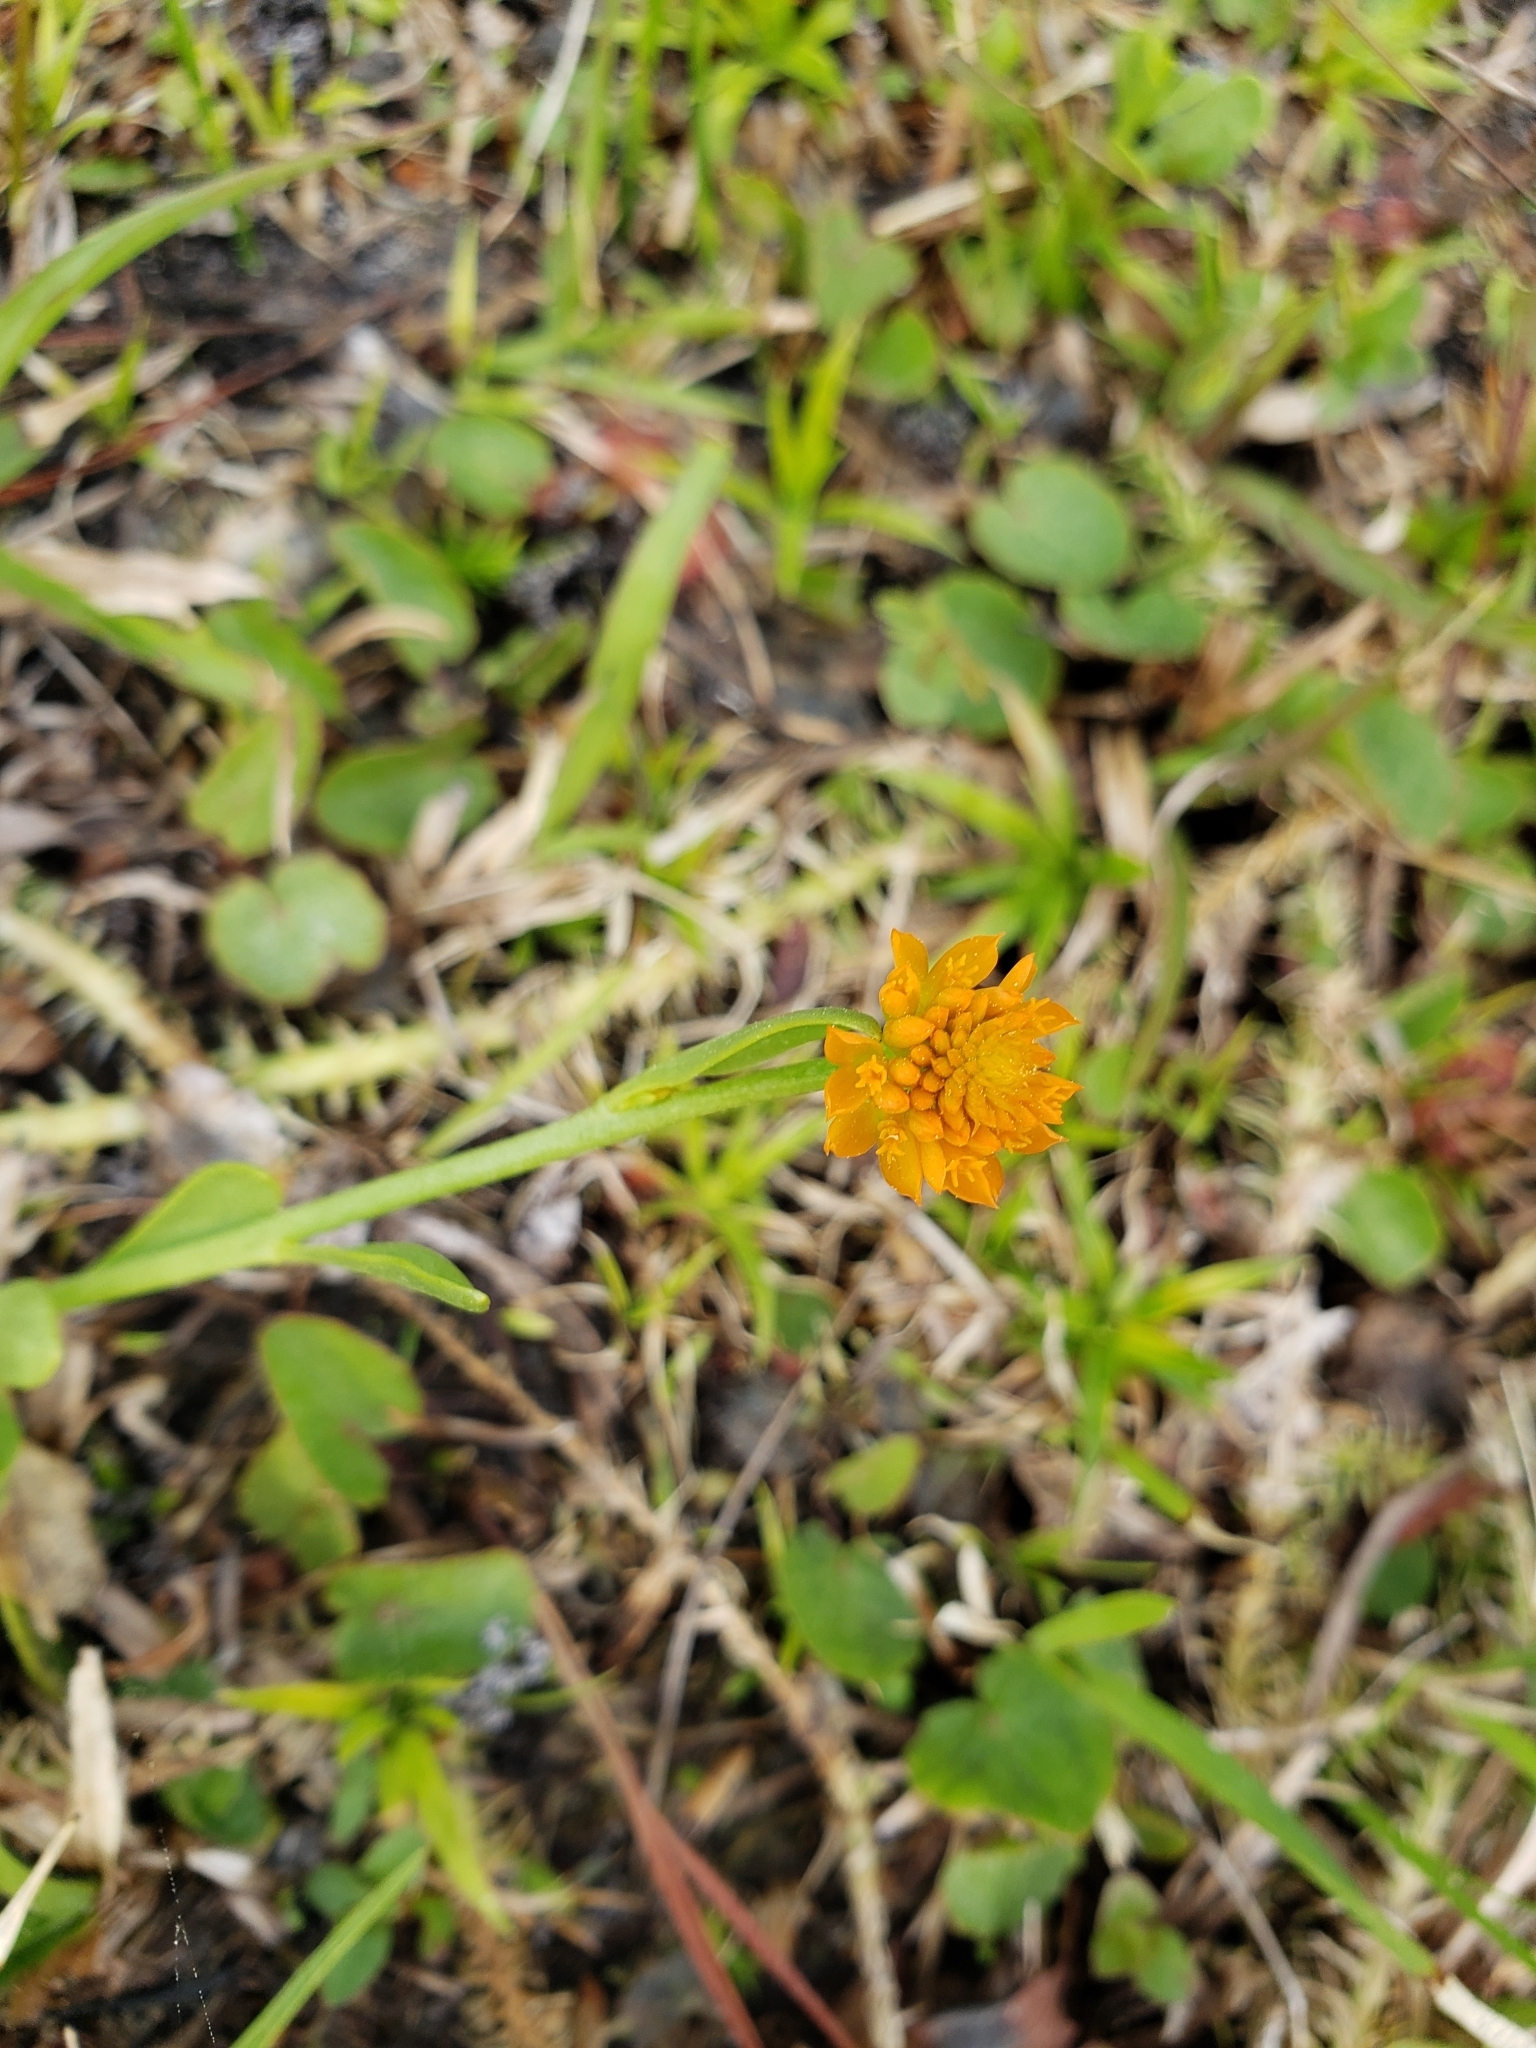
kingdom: Plantae
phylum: Tracheophyta
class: Magnoliopsida
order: Fabales
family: Polygalaceae
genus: Polygala
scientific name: Polygala lutea
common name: Orange milkwort
